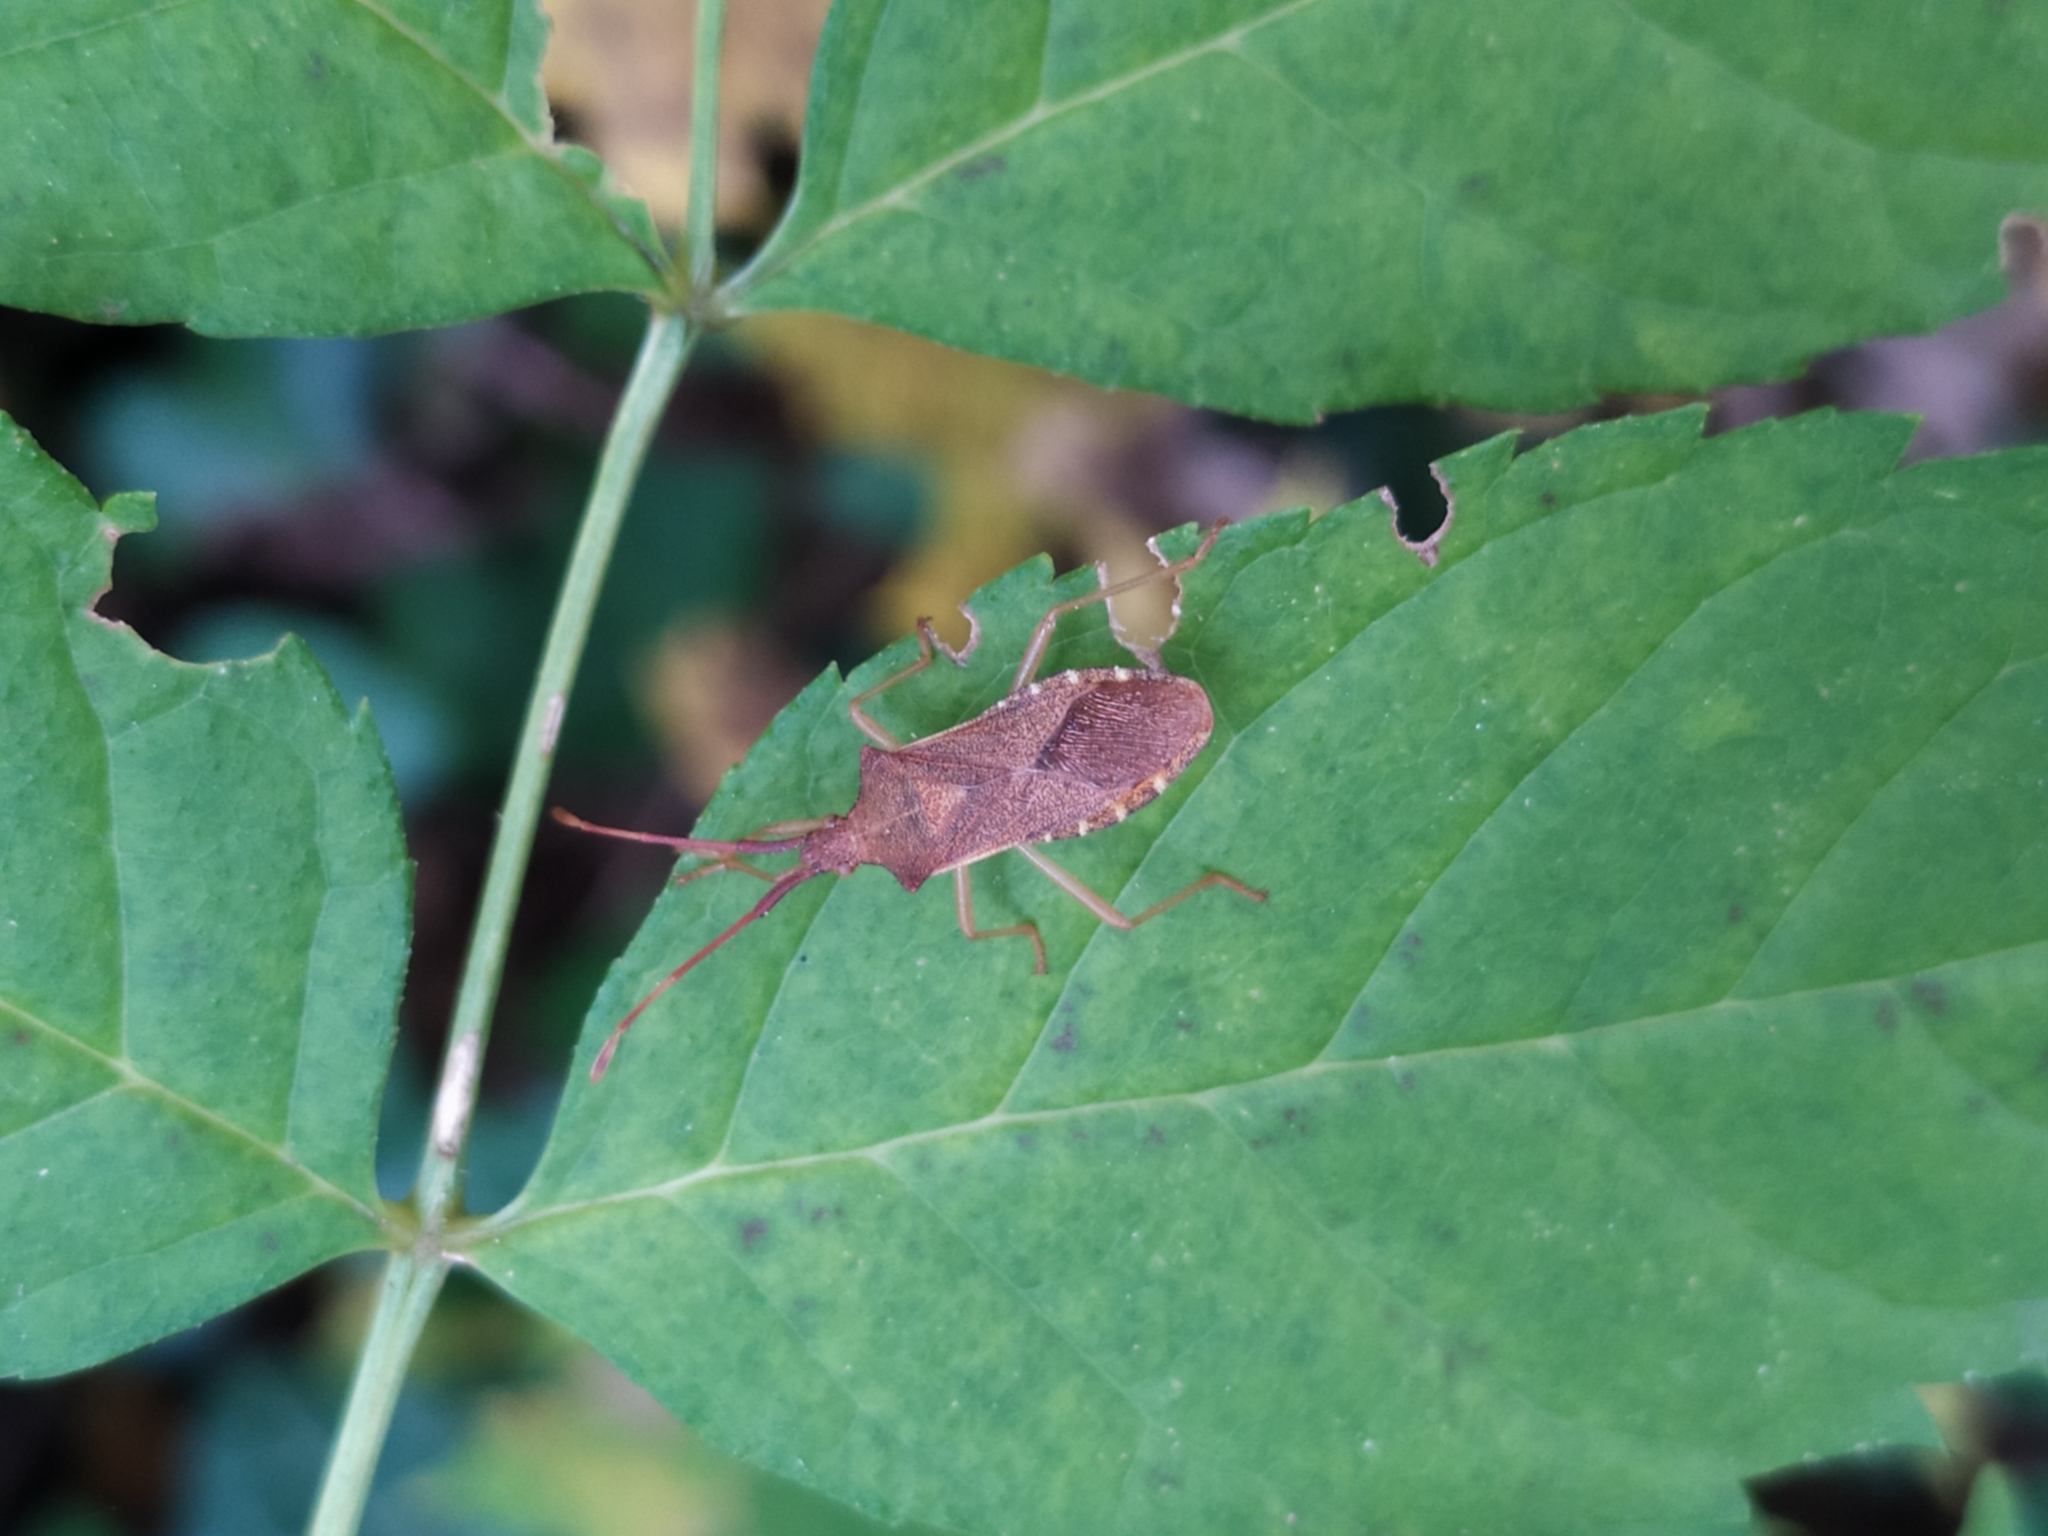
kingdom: Animalia
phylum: Arthropoda
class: Insecta
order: Hemiptera
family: Coreidae
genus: Gonocerus
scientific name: Gonocerus acuteangulatus
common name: Box bug
